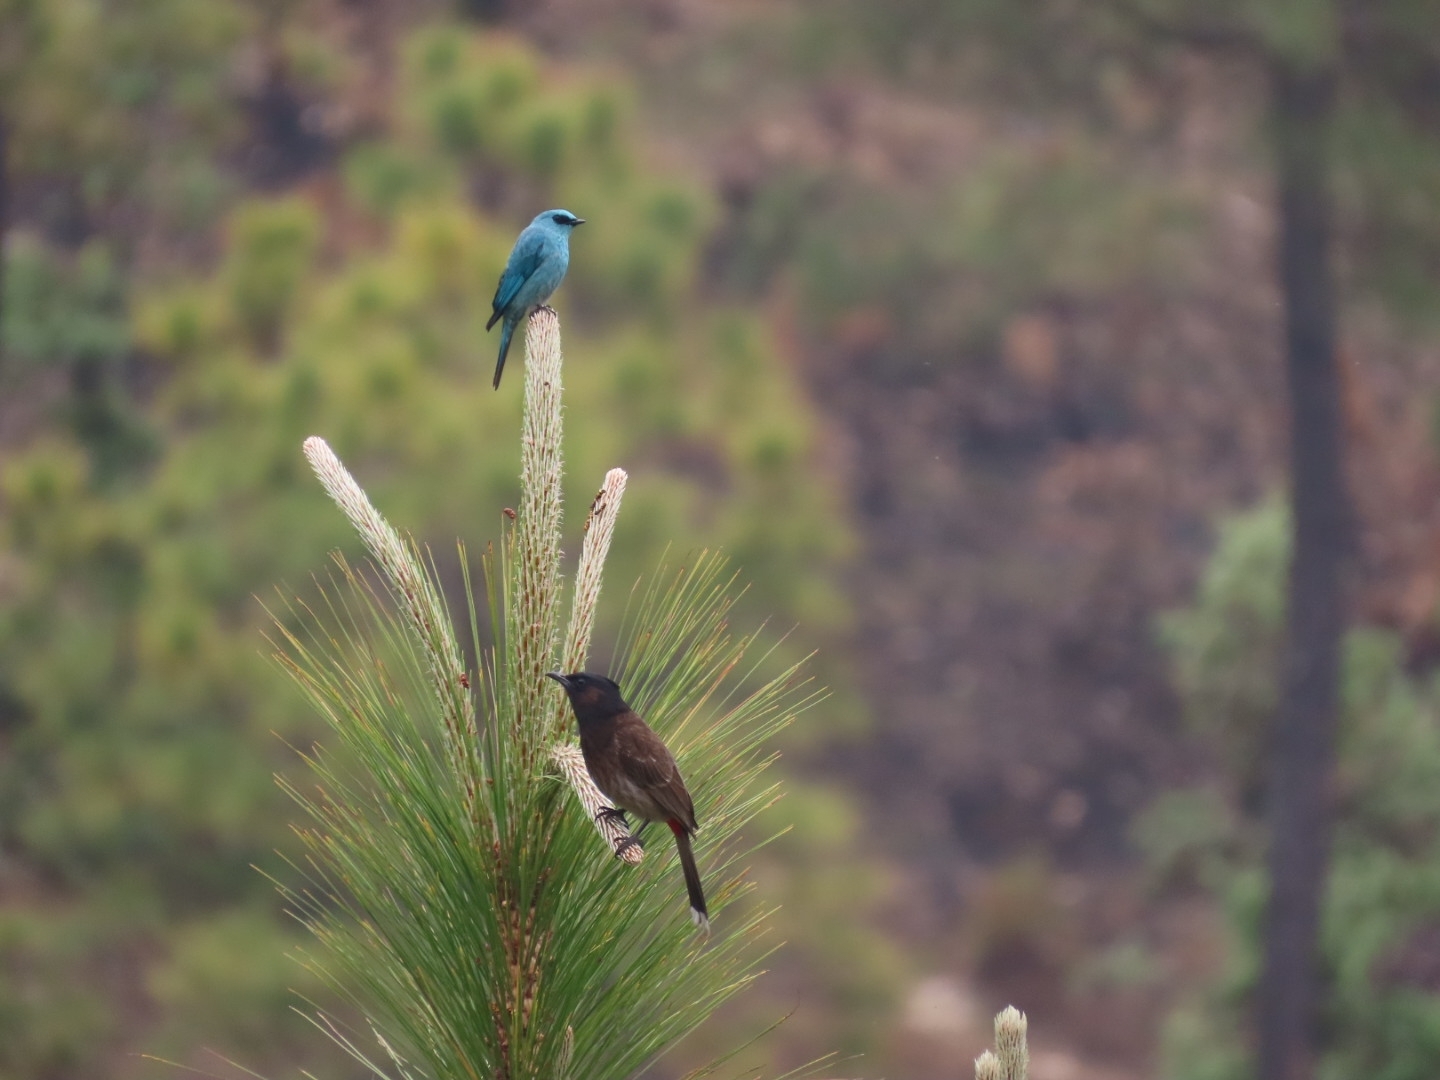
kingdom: Animalia
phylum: Chordata
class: Aves
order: Passeriformes
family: Muscicapidae
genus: Eumyias
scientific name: Eumyias thalassinus
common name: Verditer flycatcher
